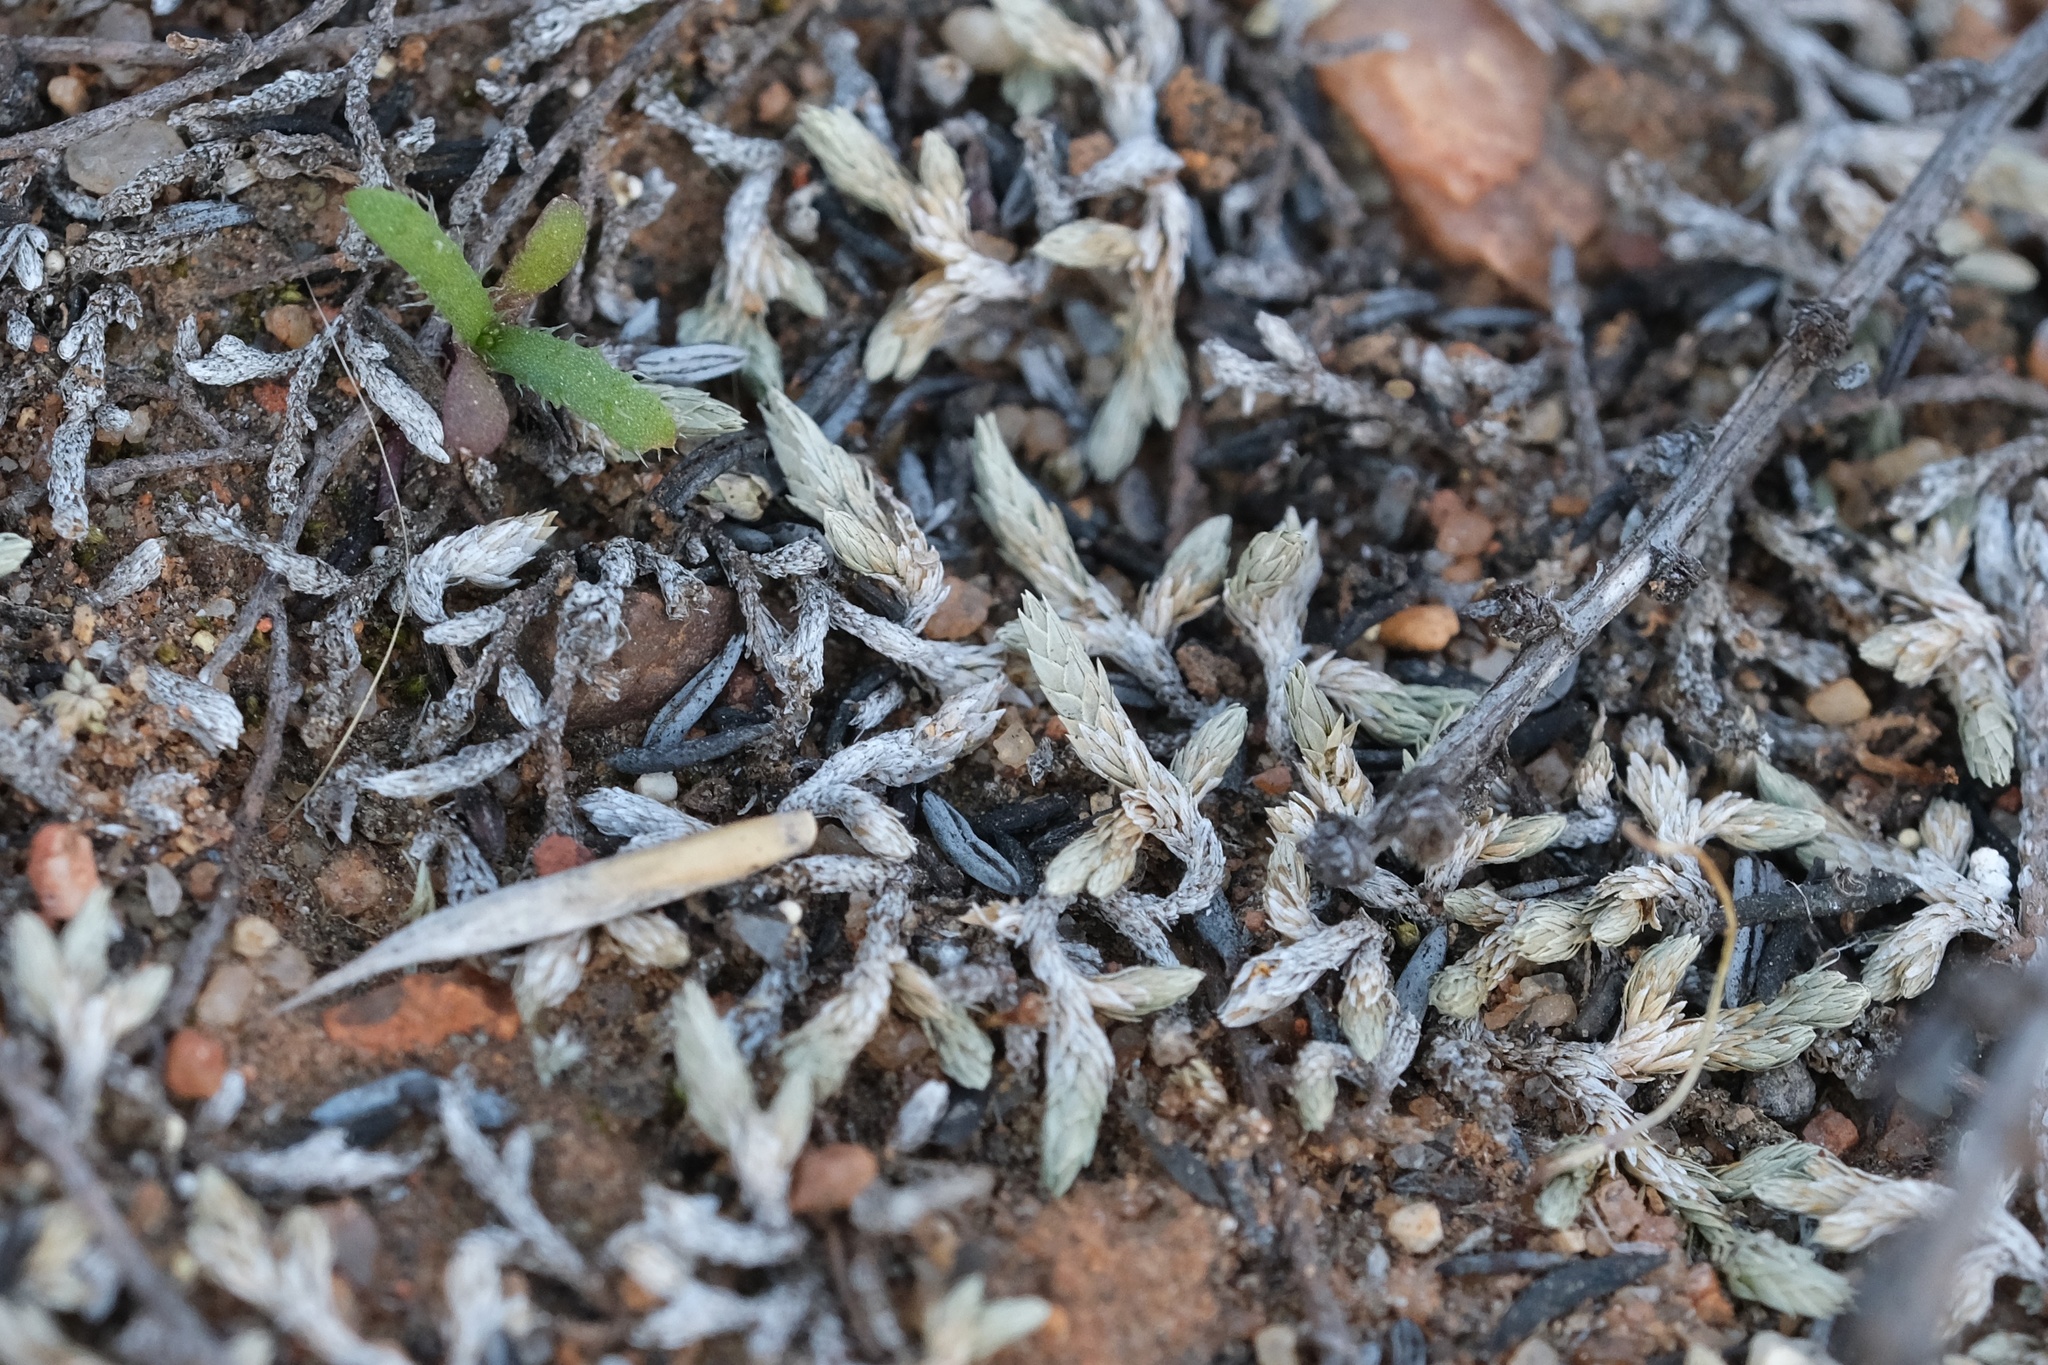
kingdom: Plantae
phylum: Tracheophyta
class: Lycopodiopsida
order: Selaginellales
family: Selaginellaceae
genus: Selaginella
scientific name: Selaginella cinerascens
